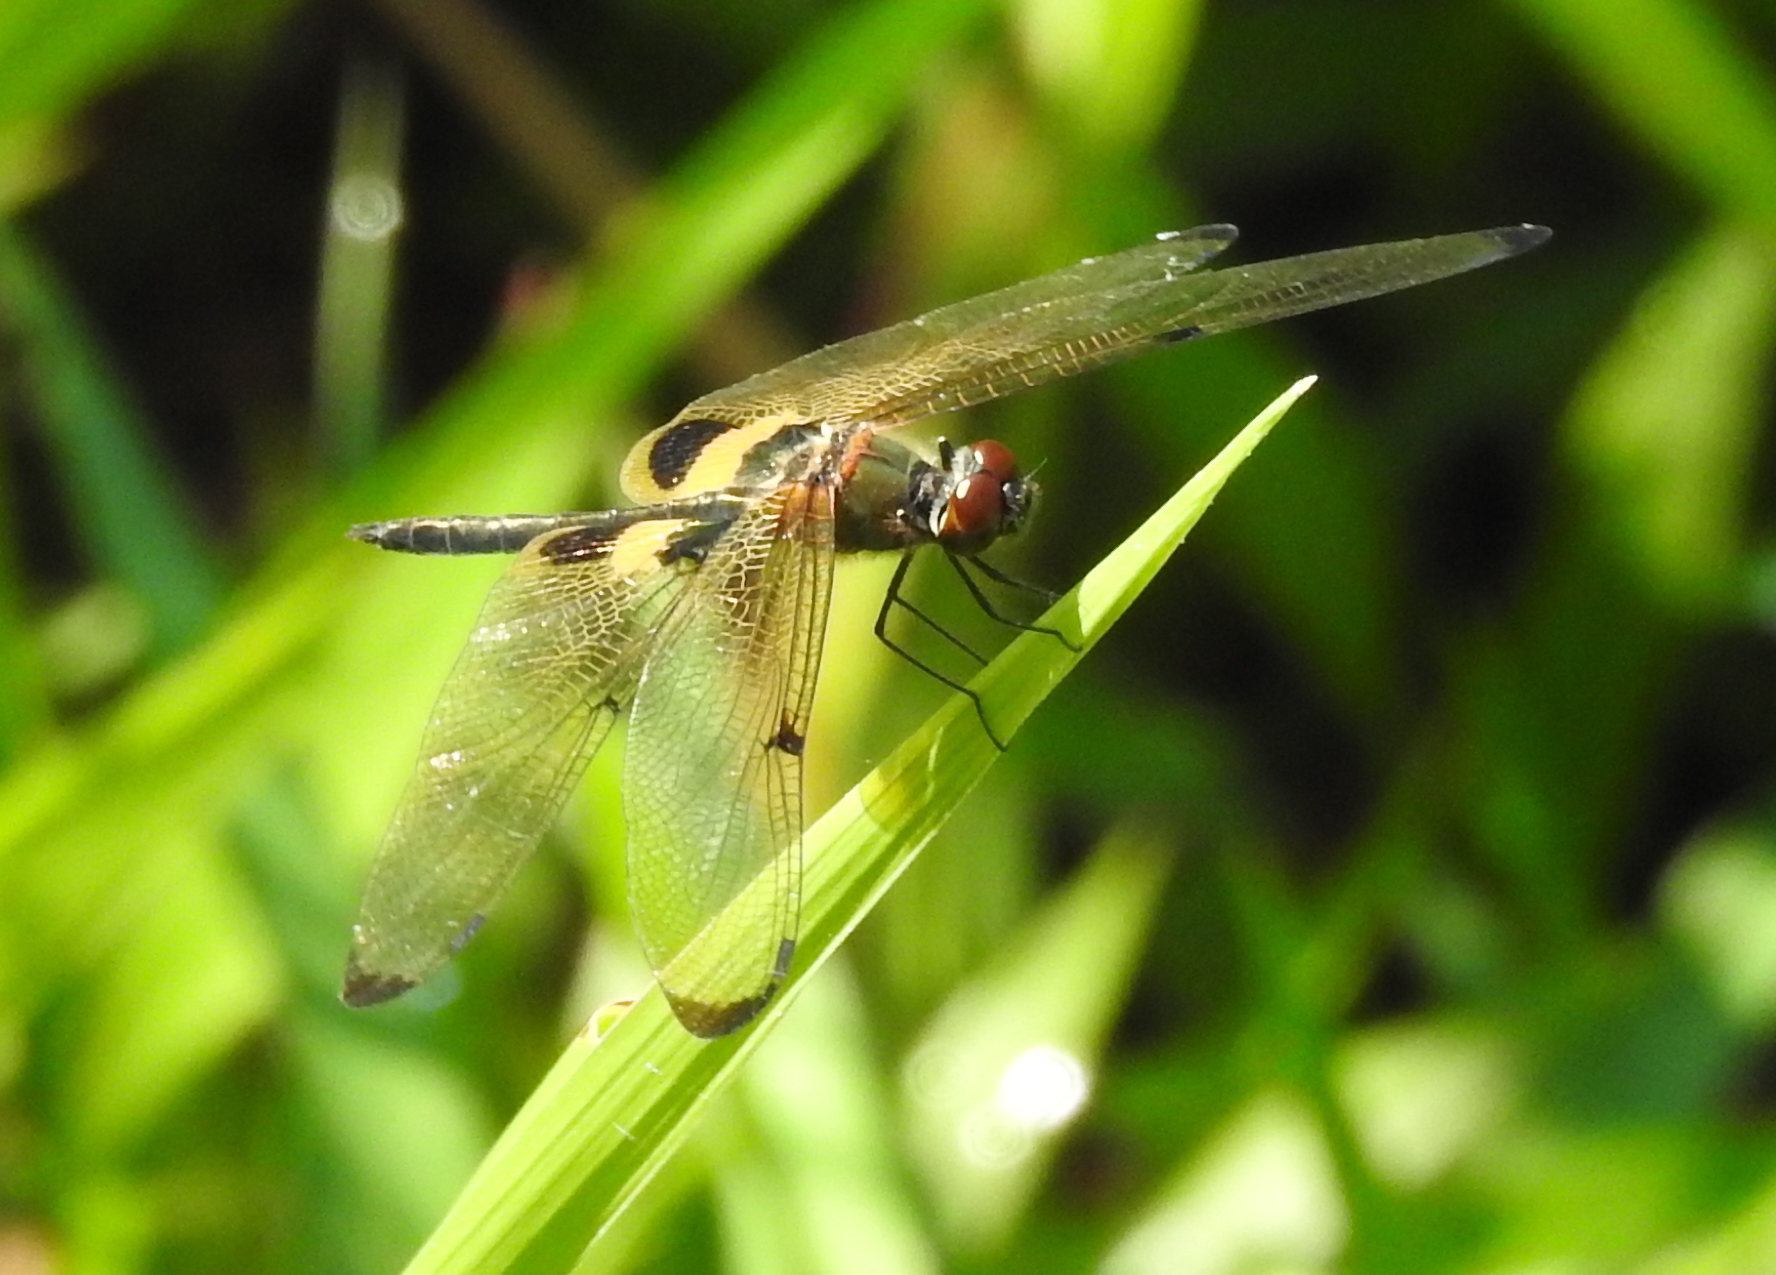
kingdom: Animalia
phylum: Arthropoda
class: Insecta
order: Odonata
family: Libellulidae
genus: Rhyothemis
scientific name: Rhyothemis phyllis
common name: Yellow-barred flutterer
